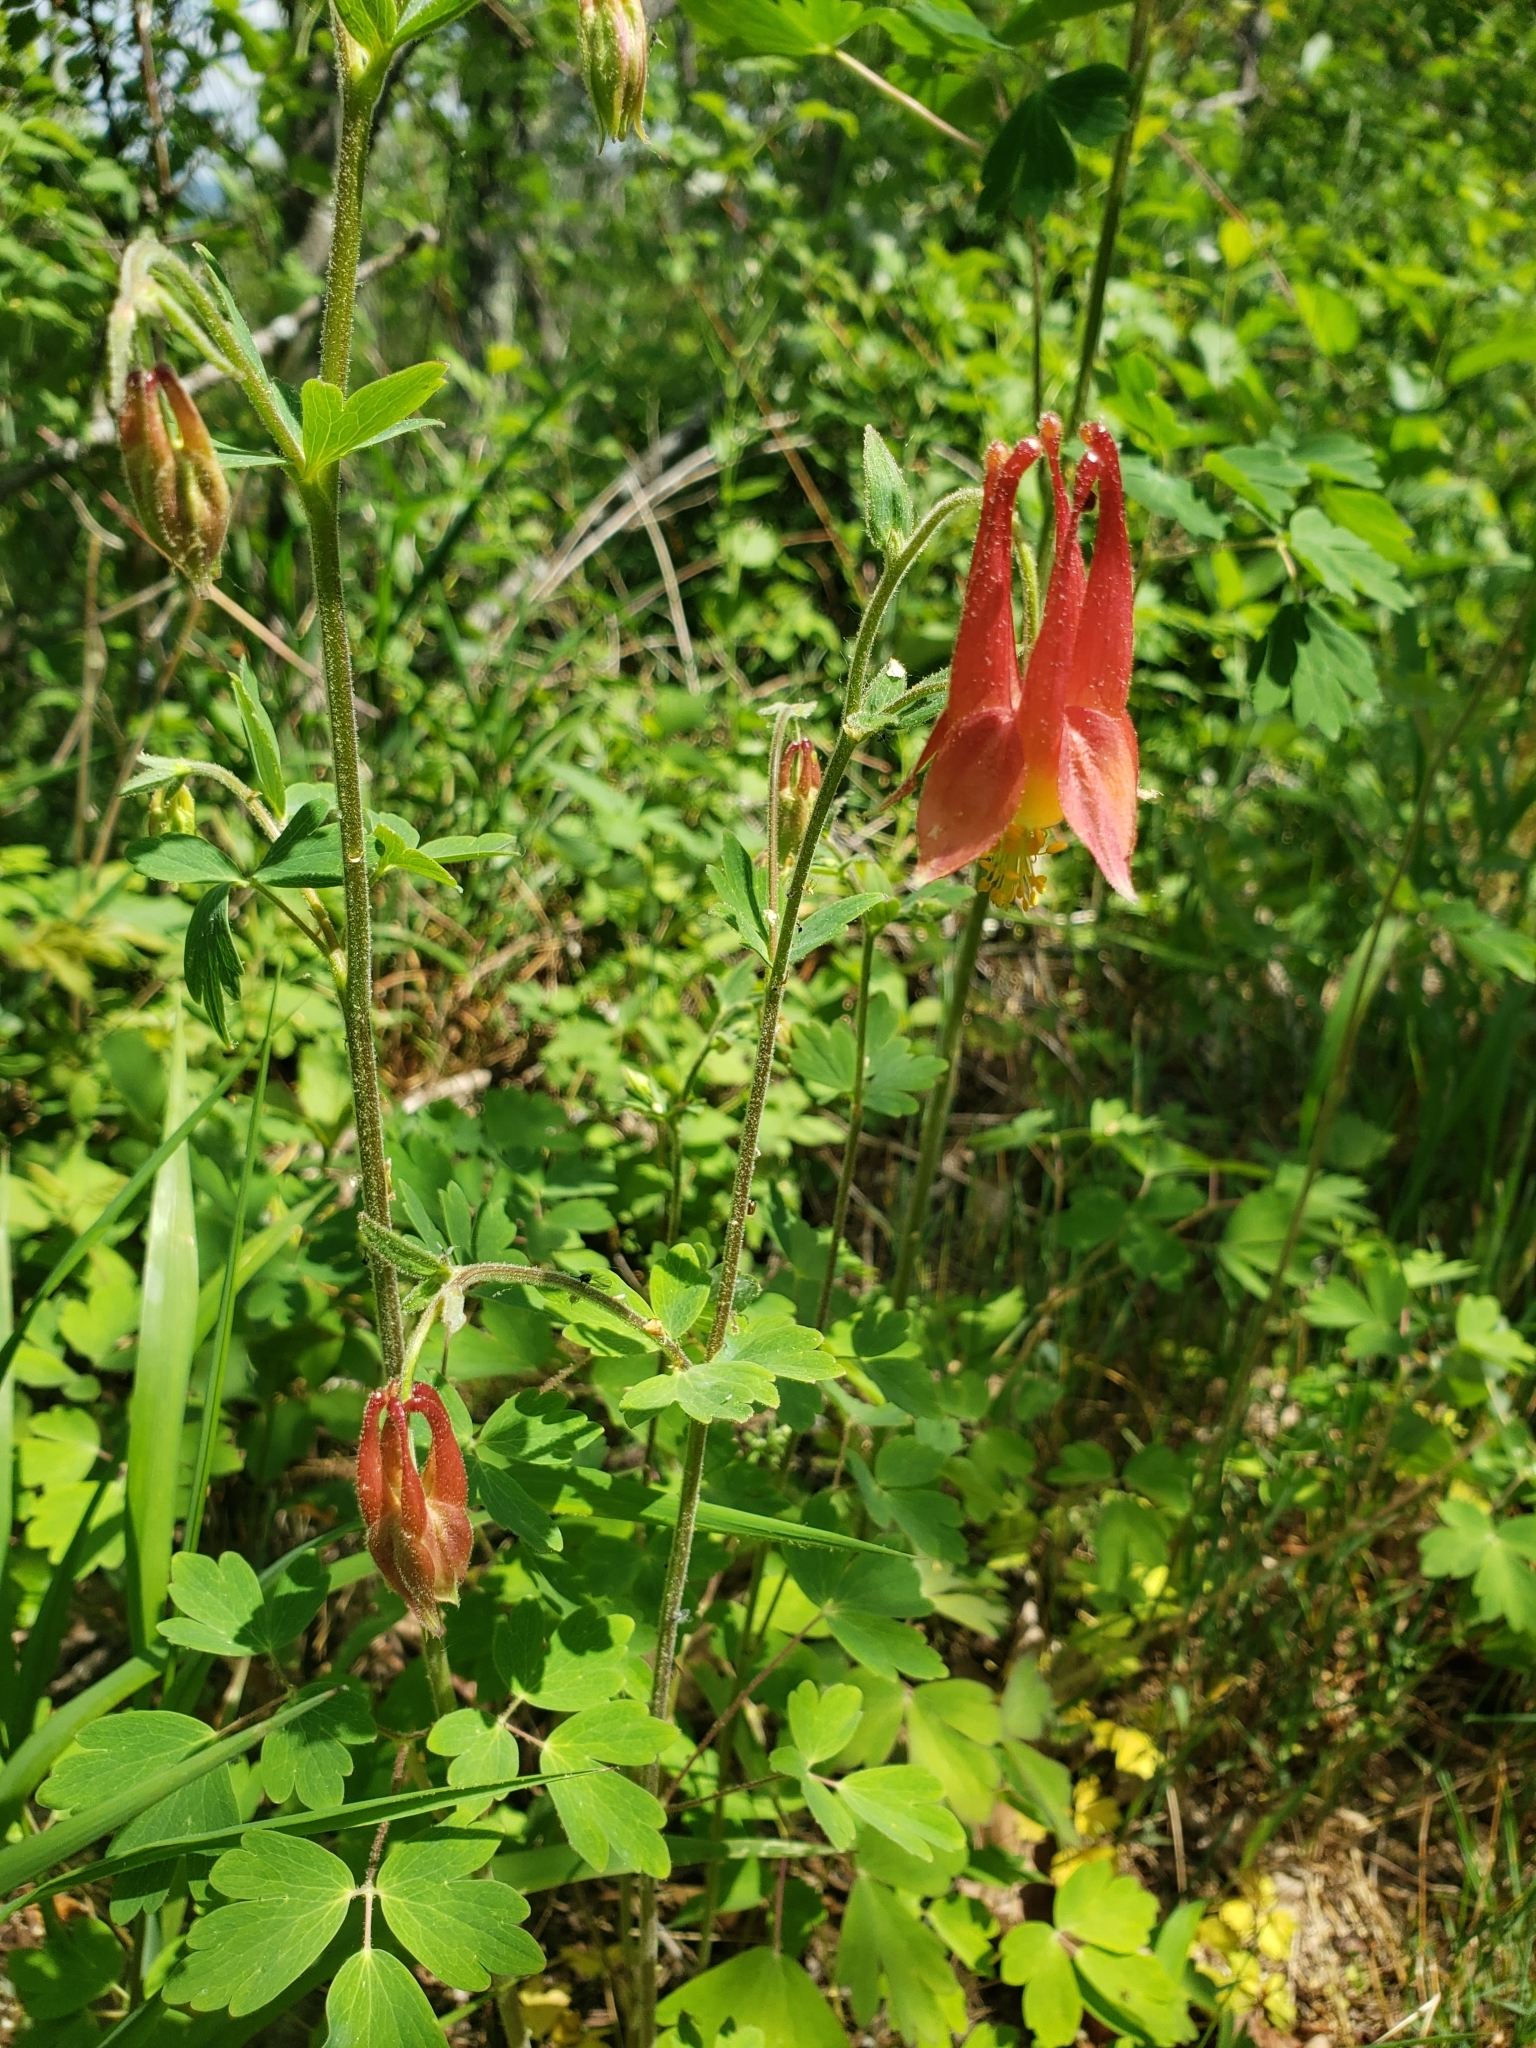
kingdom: Plantae
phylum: Tracheophyta
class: Magnoliopsida
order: Ranunculales
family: Ranunculaceae
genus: Aquilegia
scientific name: Aquilegia canadensis
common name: American columbine
